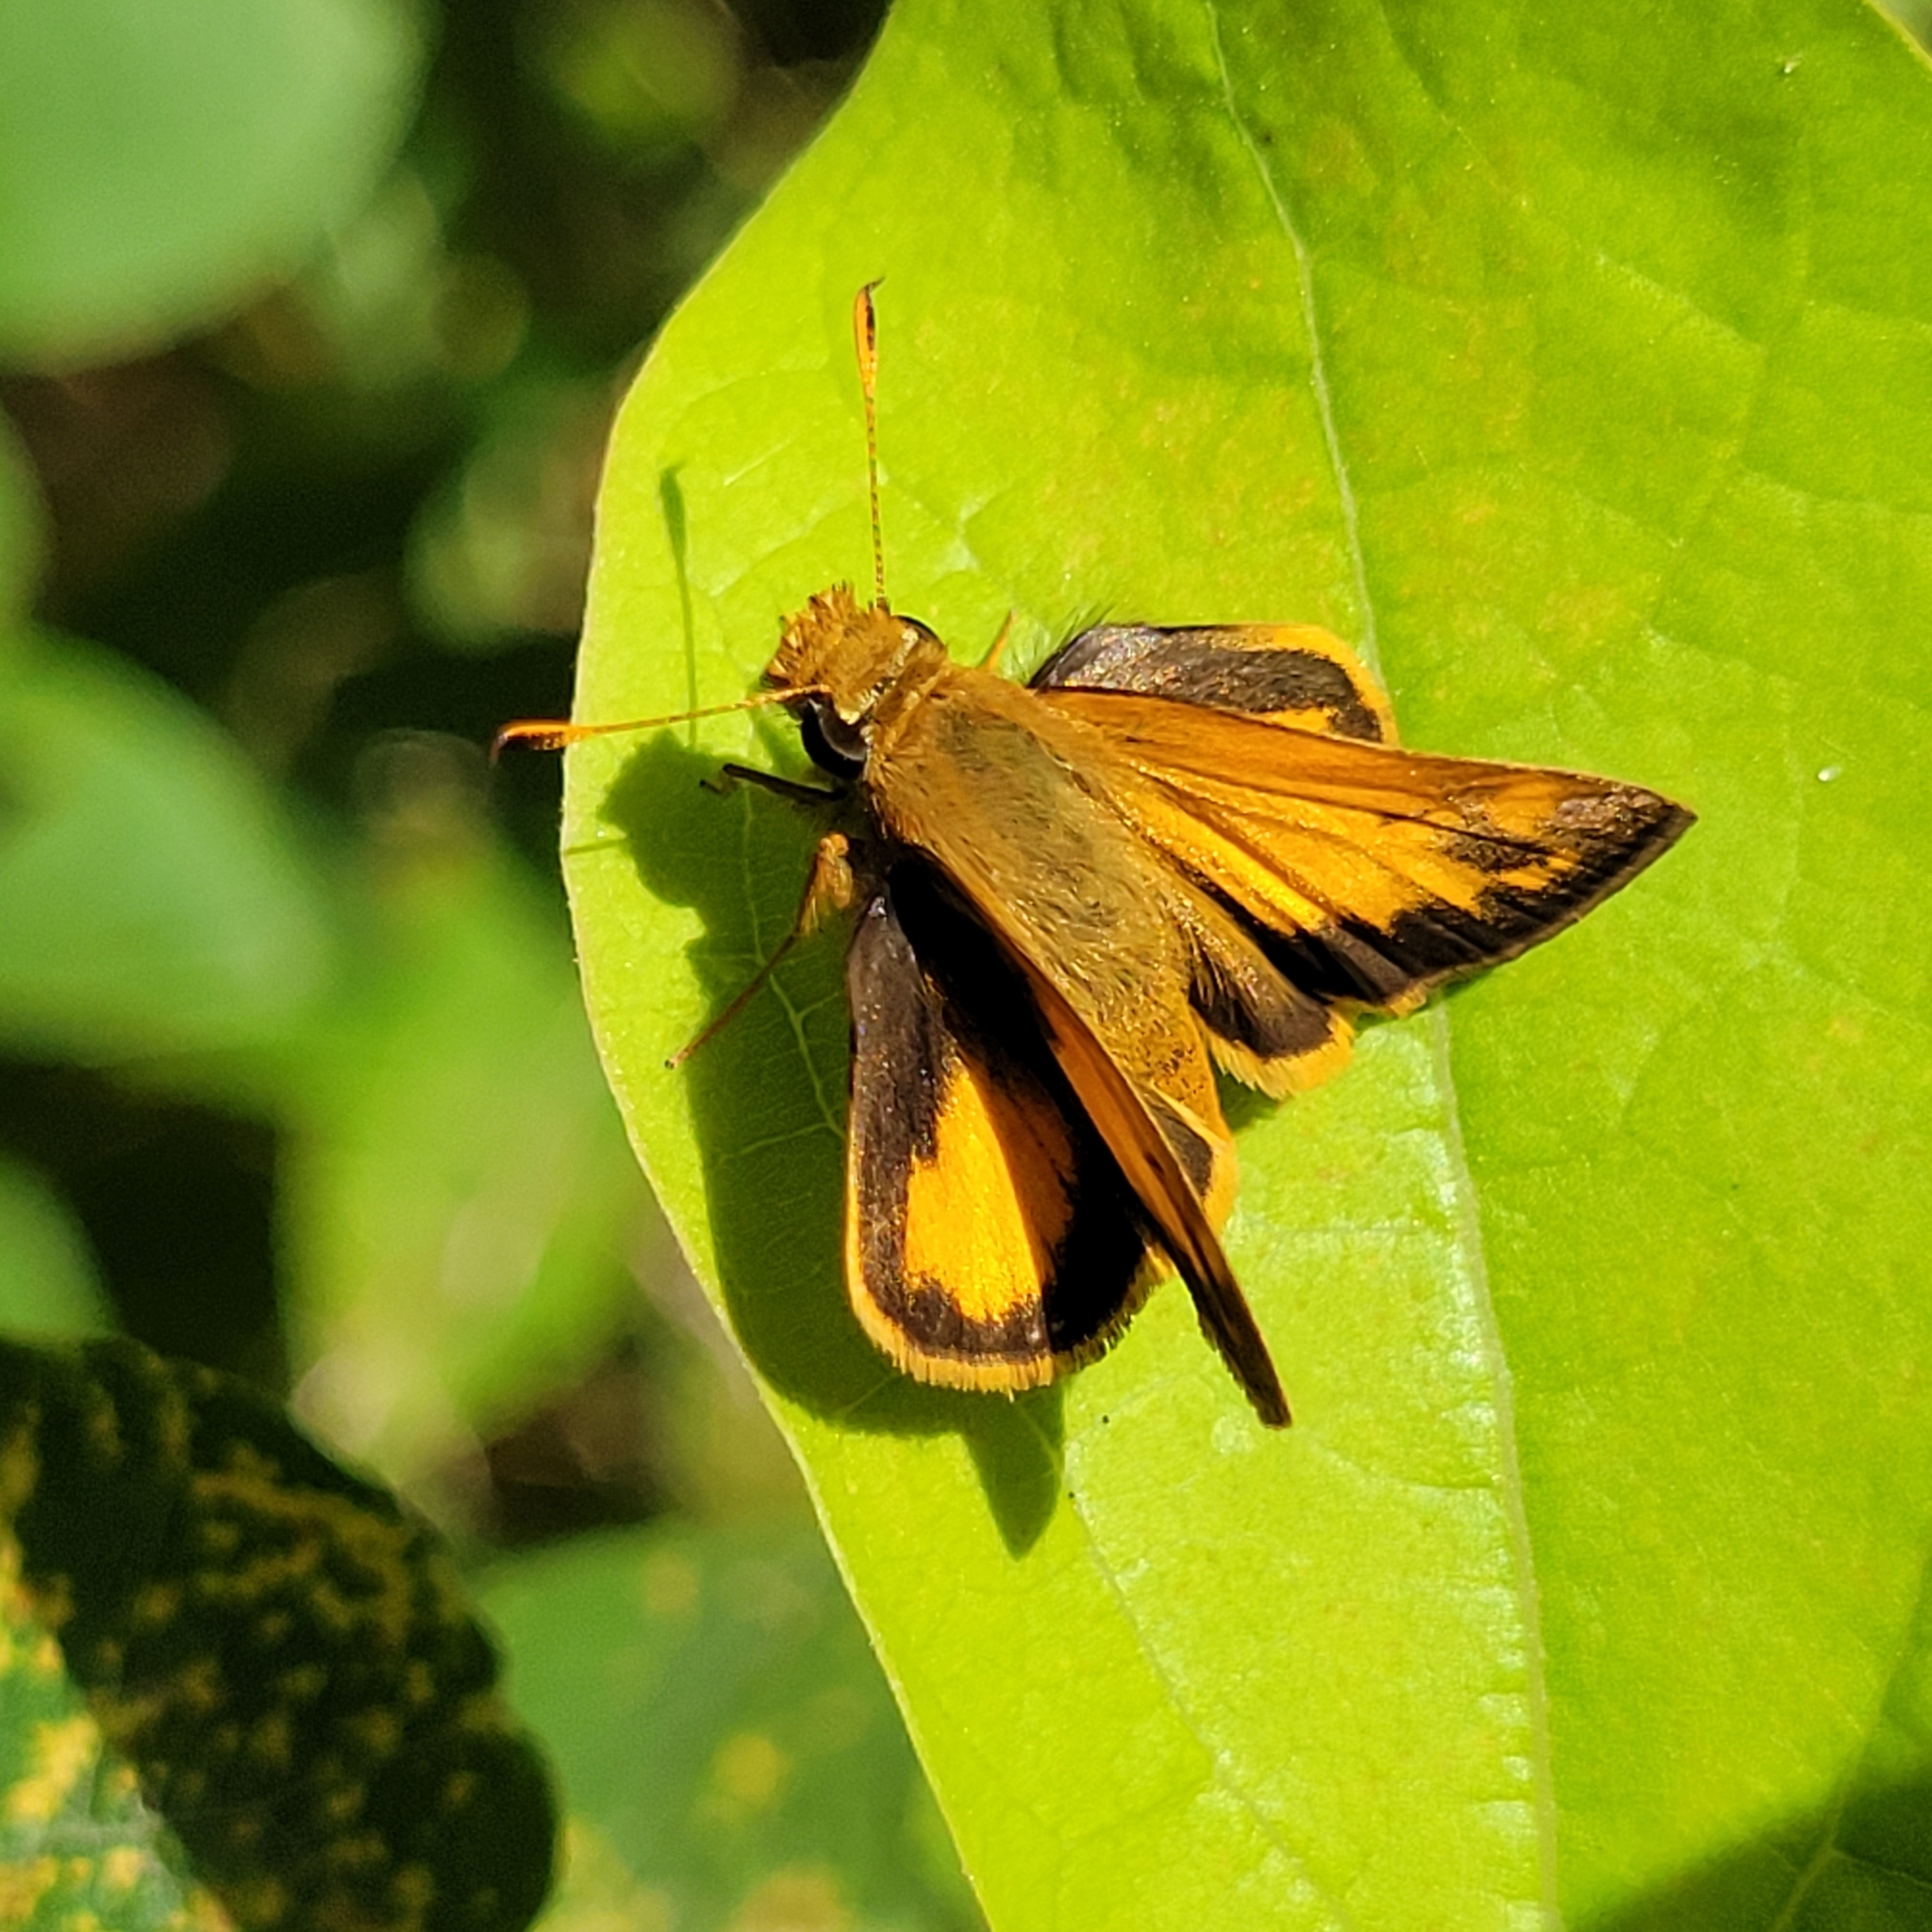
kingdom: Animalia
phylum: Arthropoda
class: Insecta
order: Lepidoptera
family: Hesperiidae
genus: Lon
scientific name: Lon zabulon
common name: Zabulon skipper
